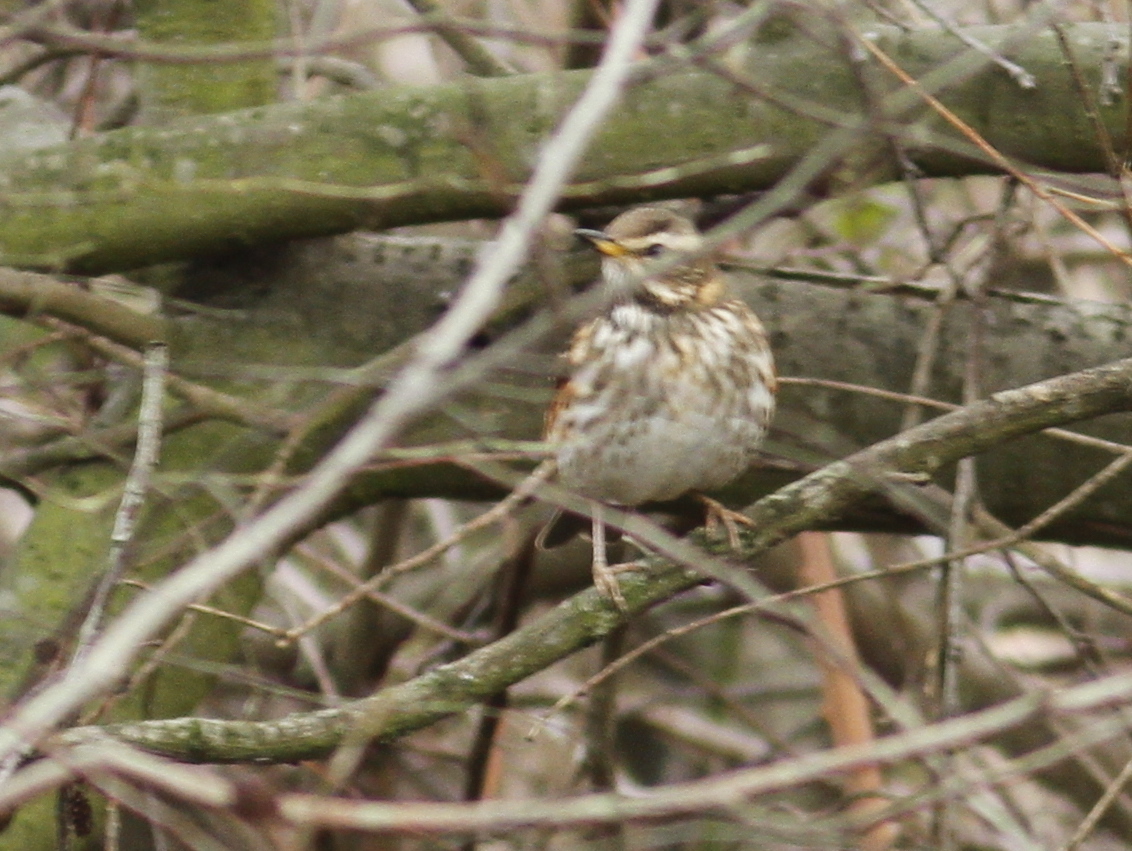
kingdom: Animalia
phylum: Chordata
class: Aves
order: Passeriformes
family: Turdidae
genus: Turdus
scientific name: Turdus iliacus
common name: Redwing
